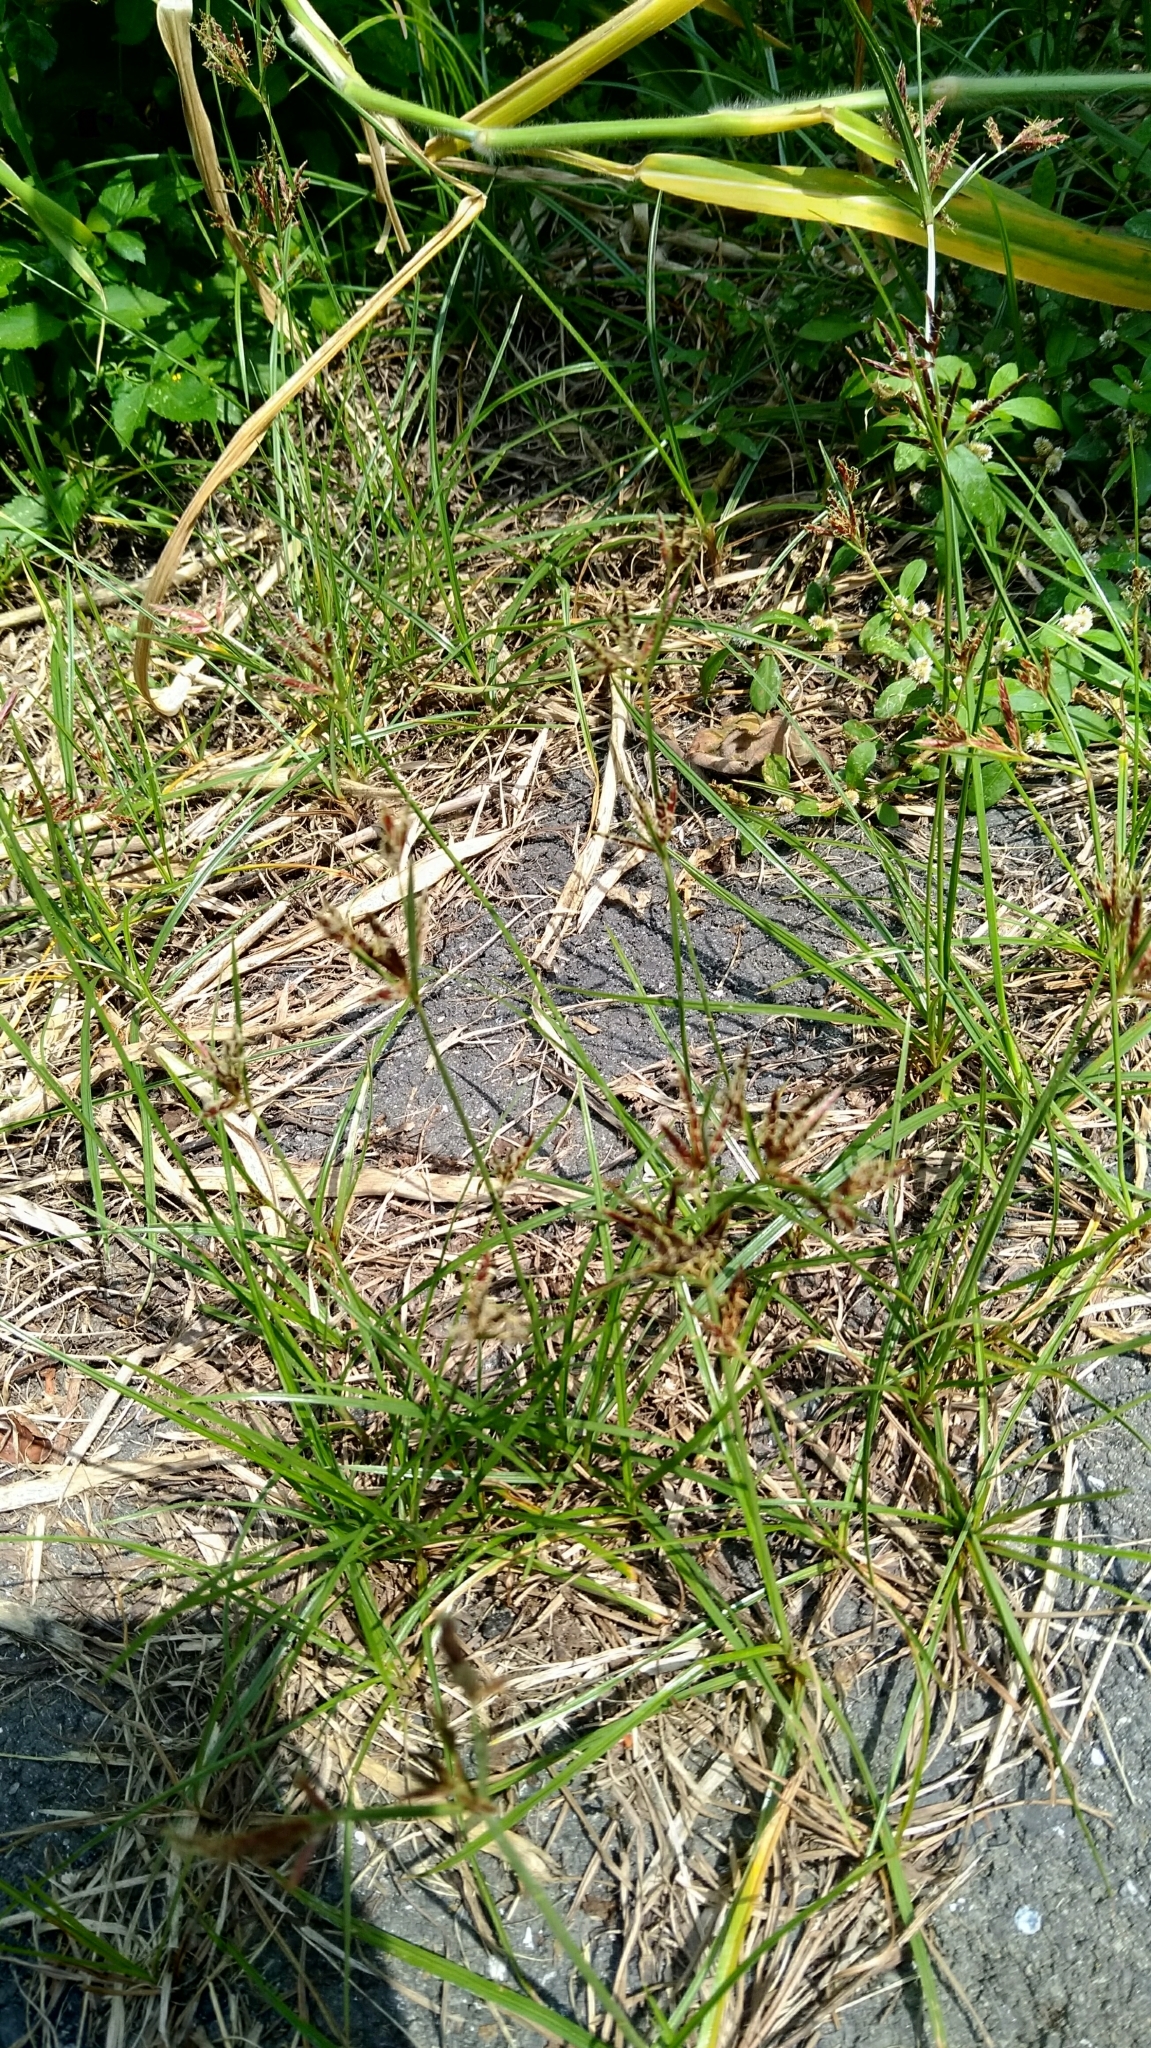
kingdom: Plantae
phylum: Tracheophyta
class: Liliopsida
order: Poales
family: Cyperaceae
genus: Cyperus
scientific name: Cyperus rotundus
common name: Nutgrass
